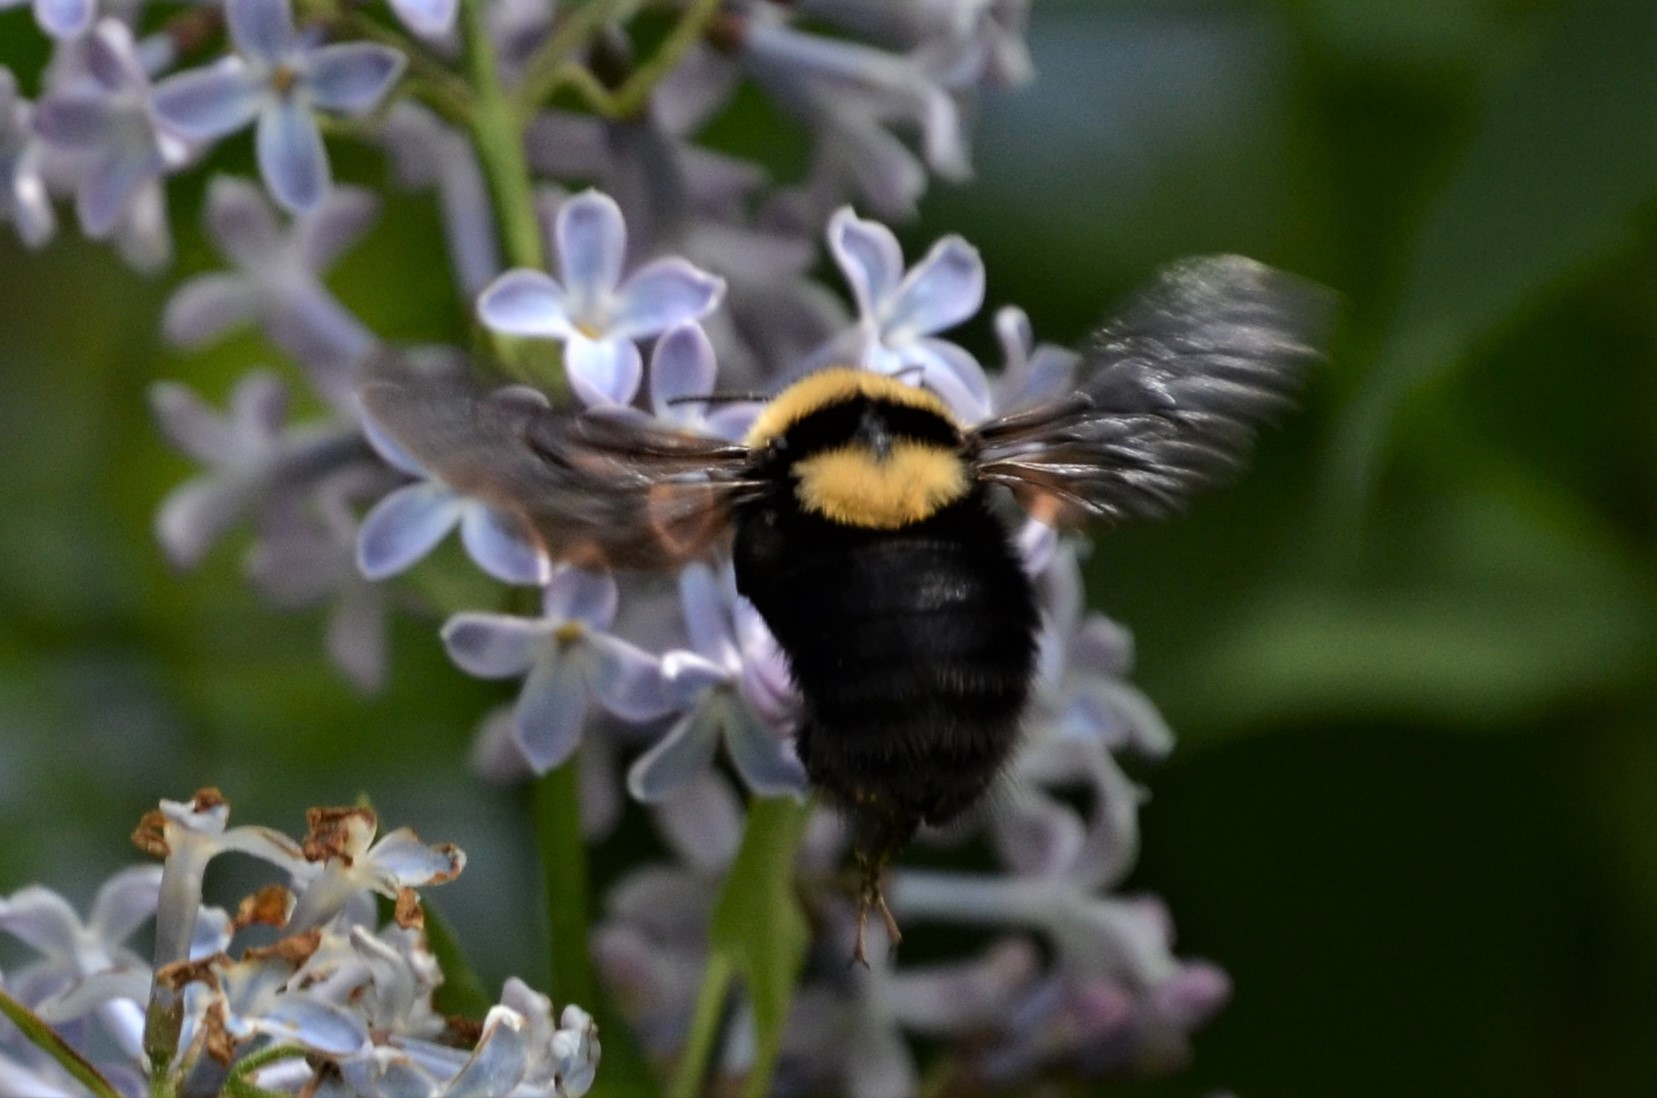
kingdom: Animalia
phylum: Arthropoda
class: Insecta
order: Hymenoptera
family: Apidae
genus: Bombus
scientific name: Bombus argillaceus
